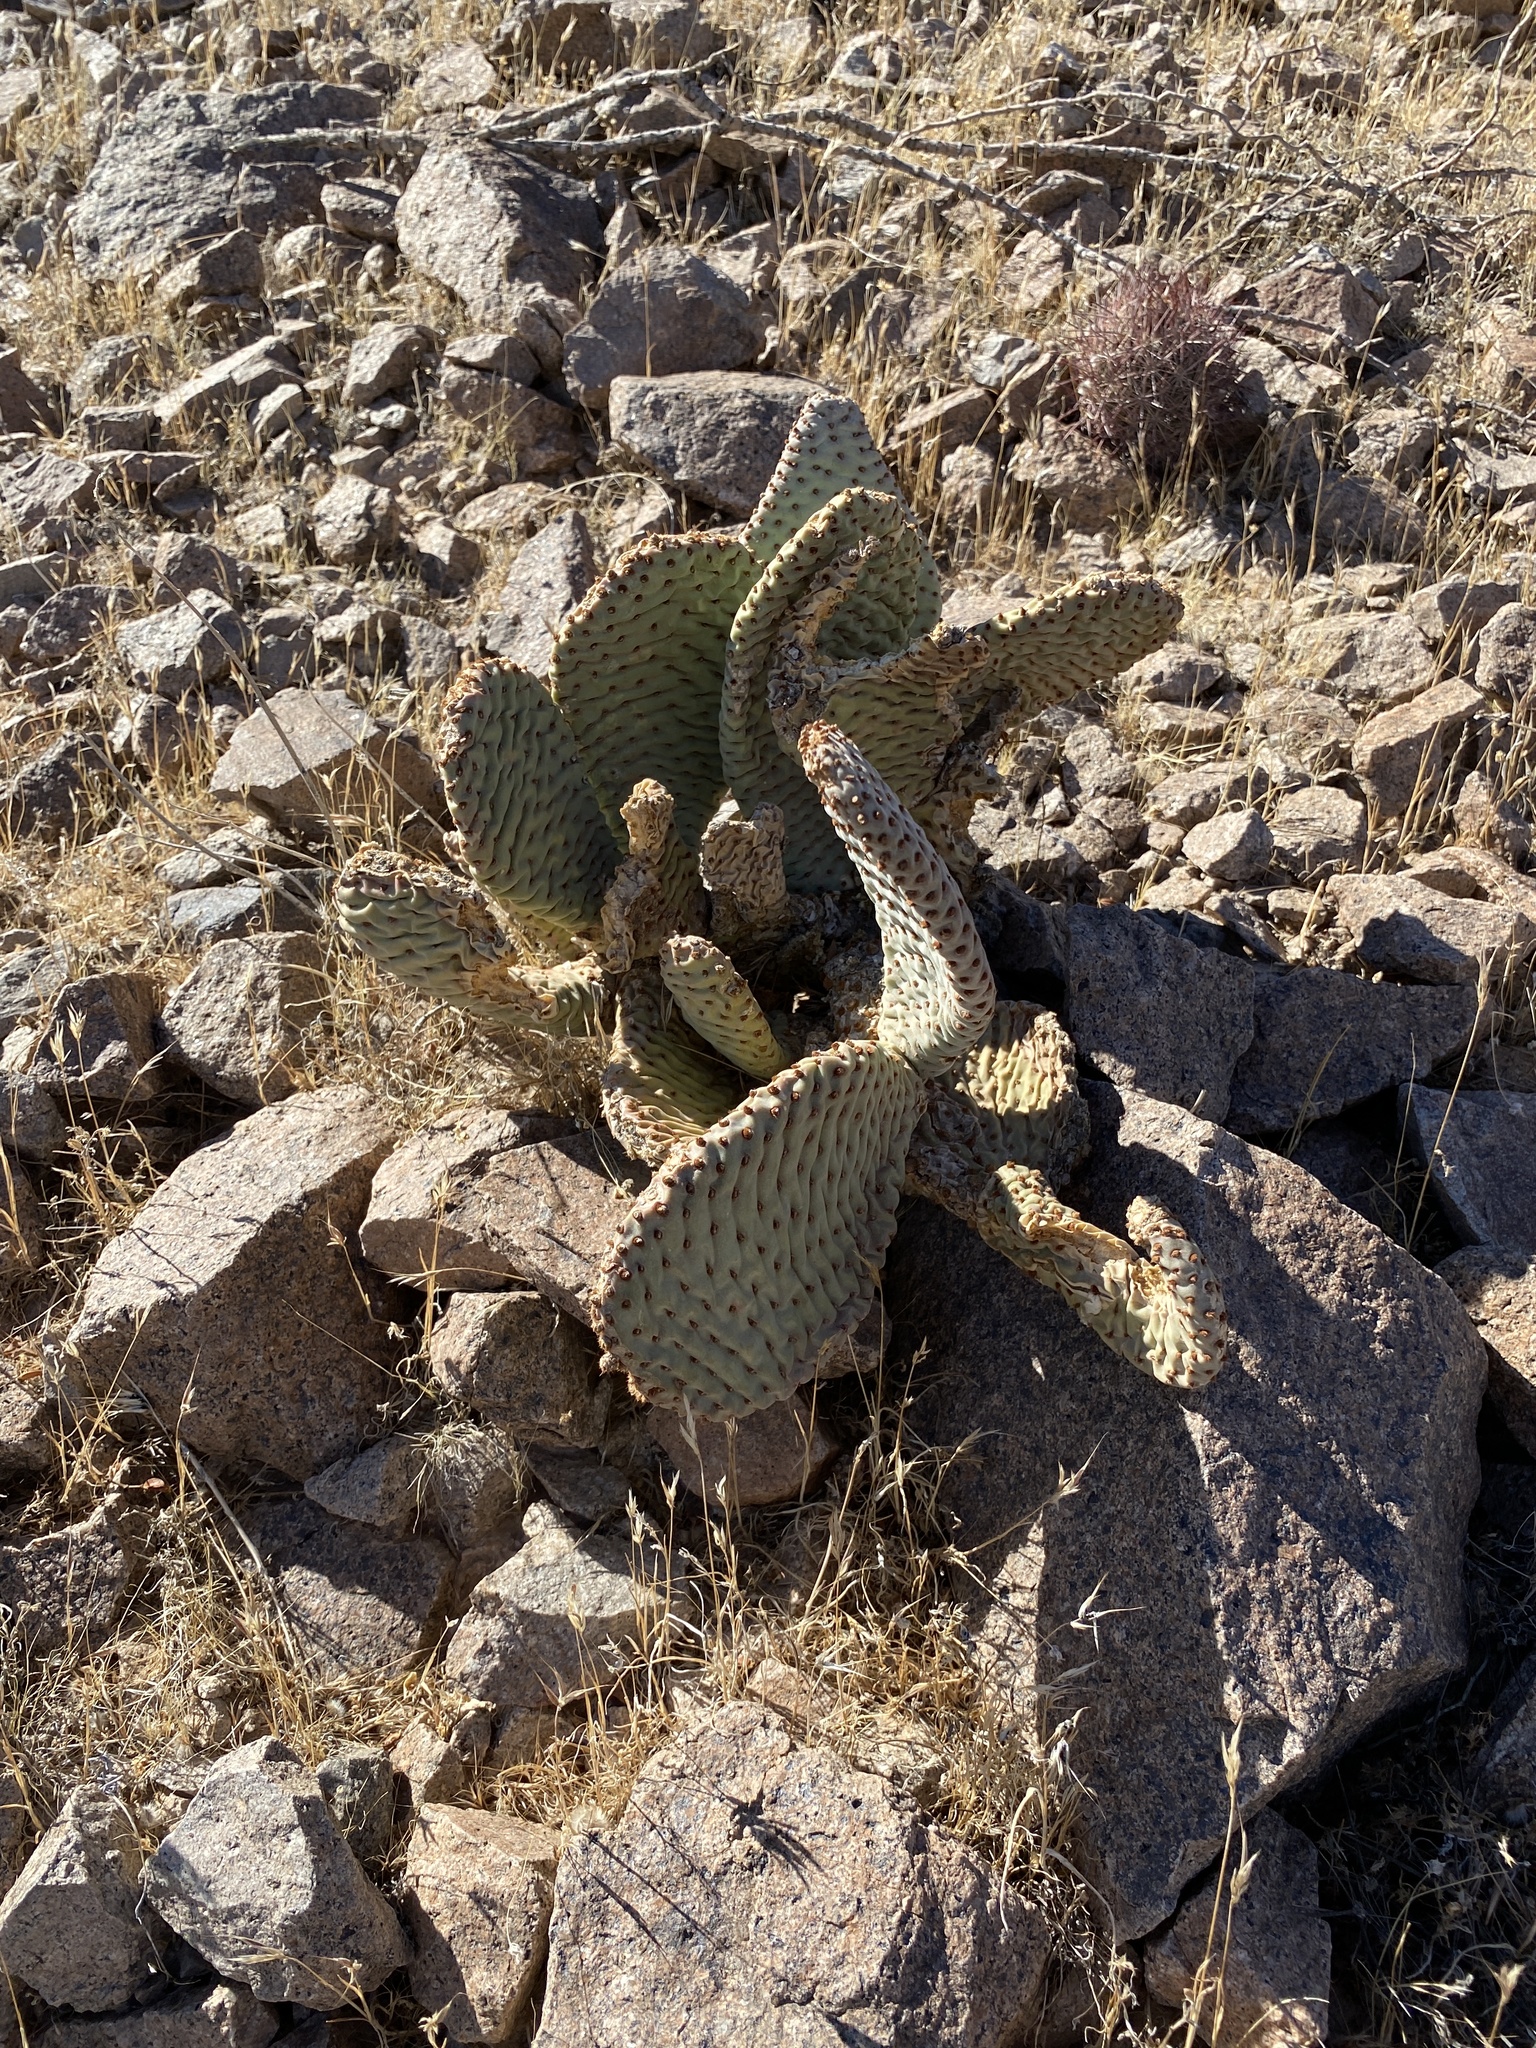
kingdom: Plantae
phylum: Tracheophyta
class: Magnoliopsida
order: Caryophyllales
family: Cactaceae
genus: Opuntia
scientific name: Opuntia basilaris
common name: Beavertail prickly-pear
